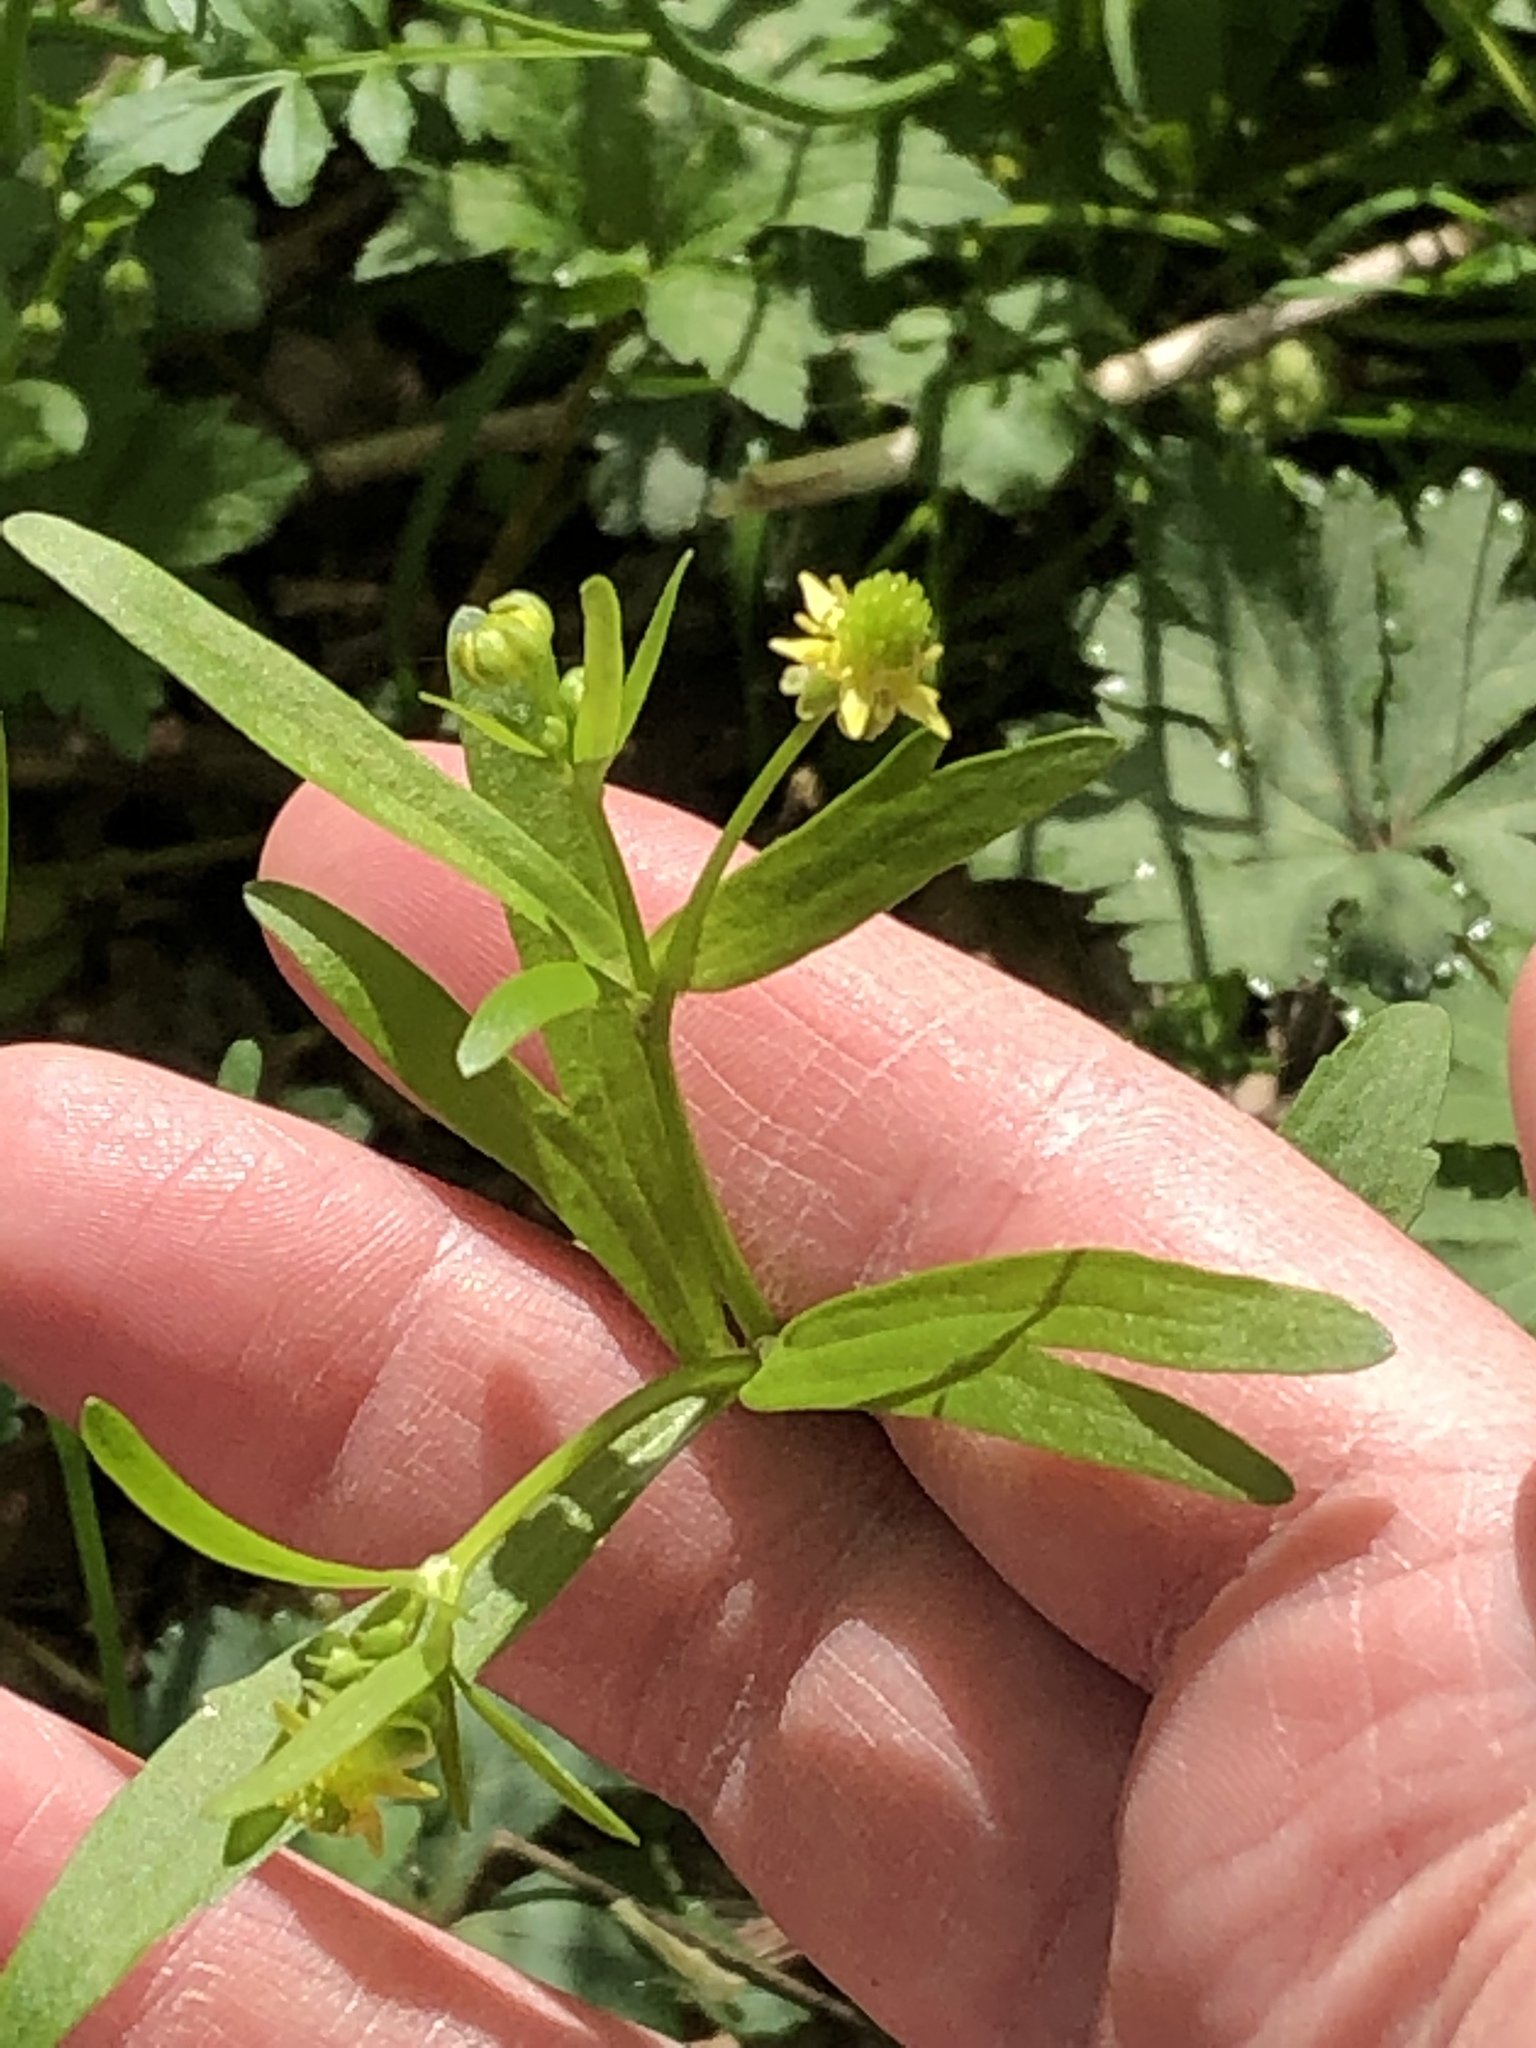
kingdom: Plantae
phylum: Tracheophyta
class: Magnoliopsida
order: Ranunculales
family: Ranunculaceae
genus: Ranunculus
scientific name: Ranunculus abortivus
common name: Early wood buttercup
